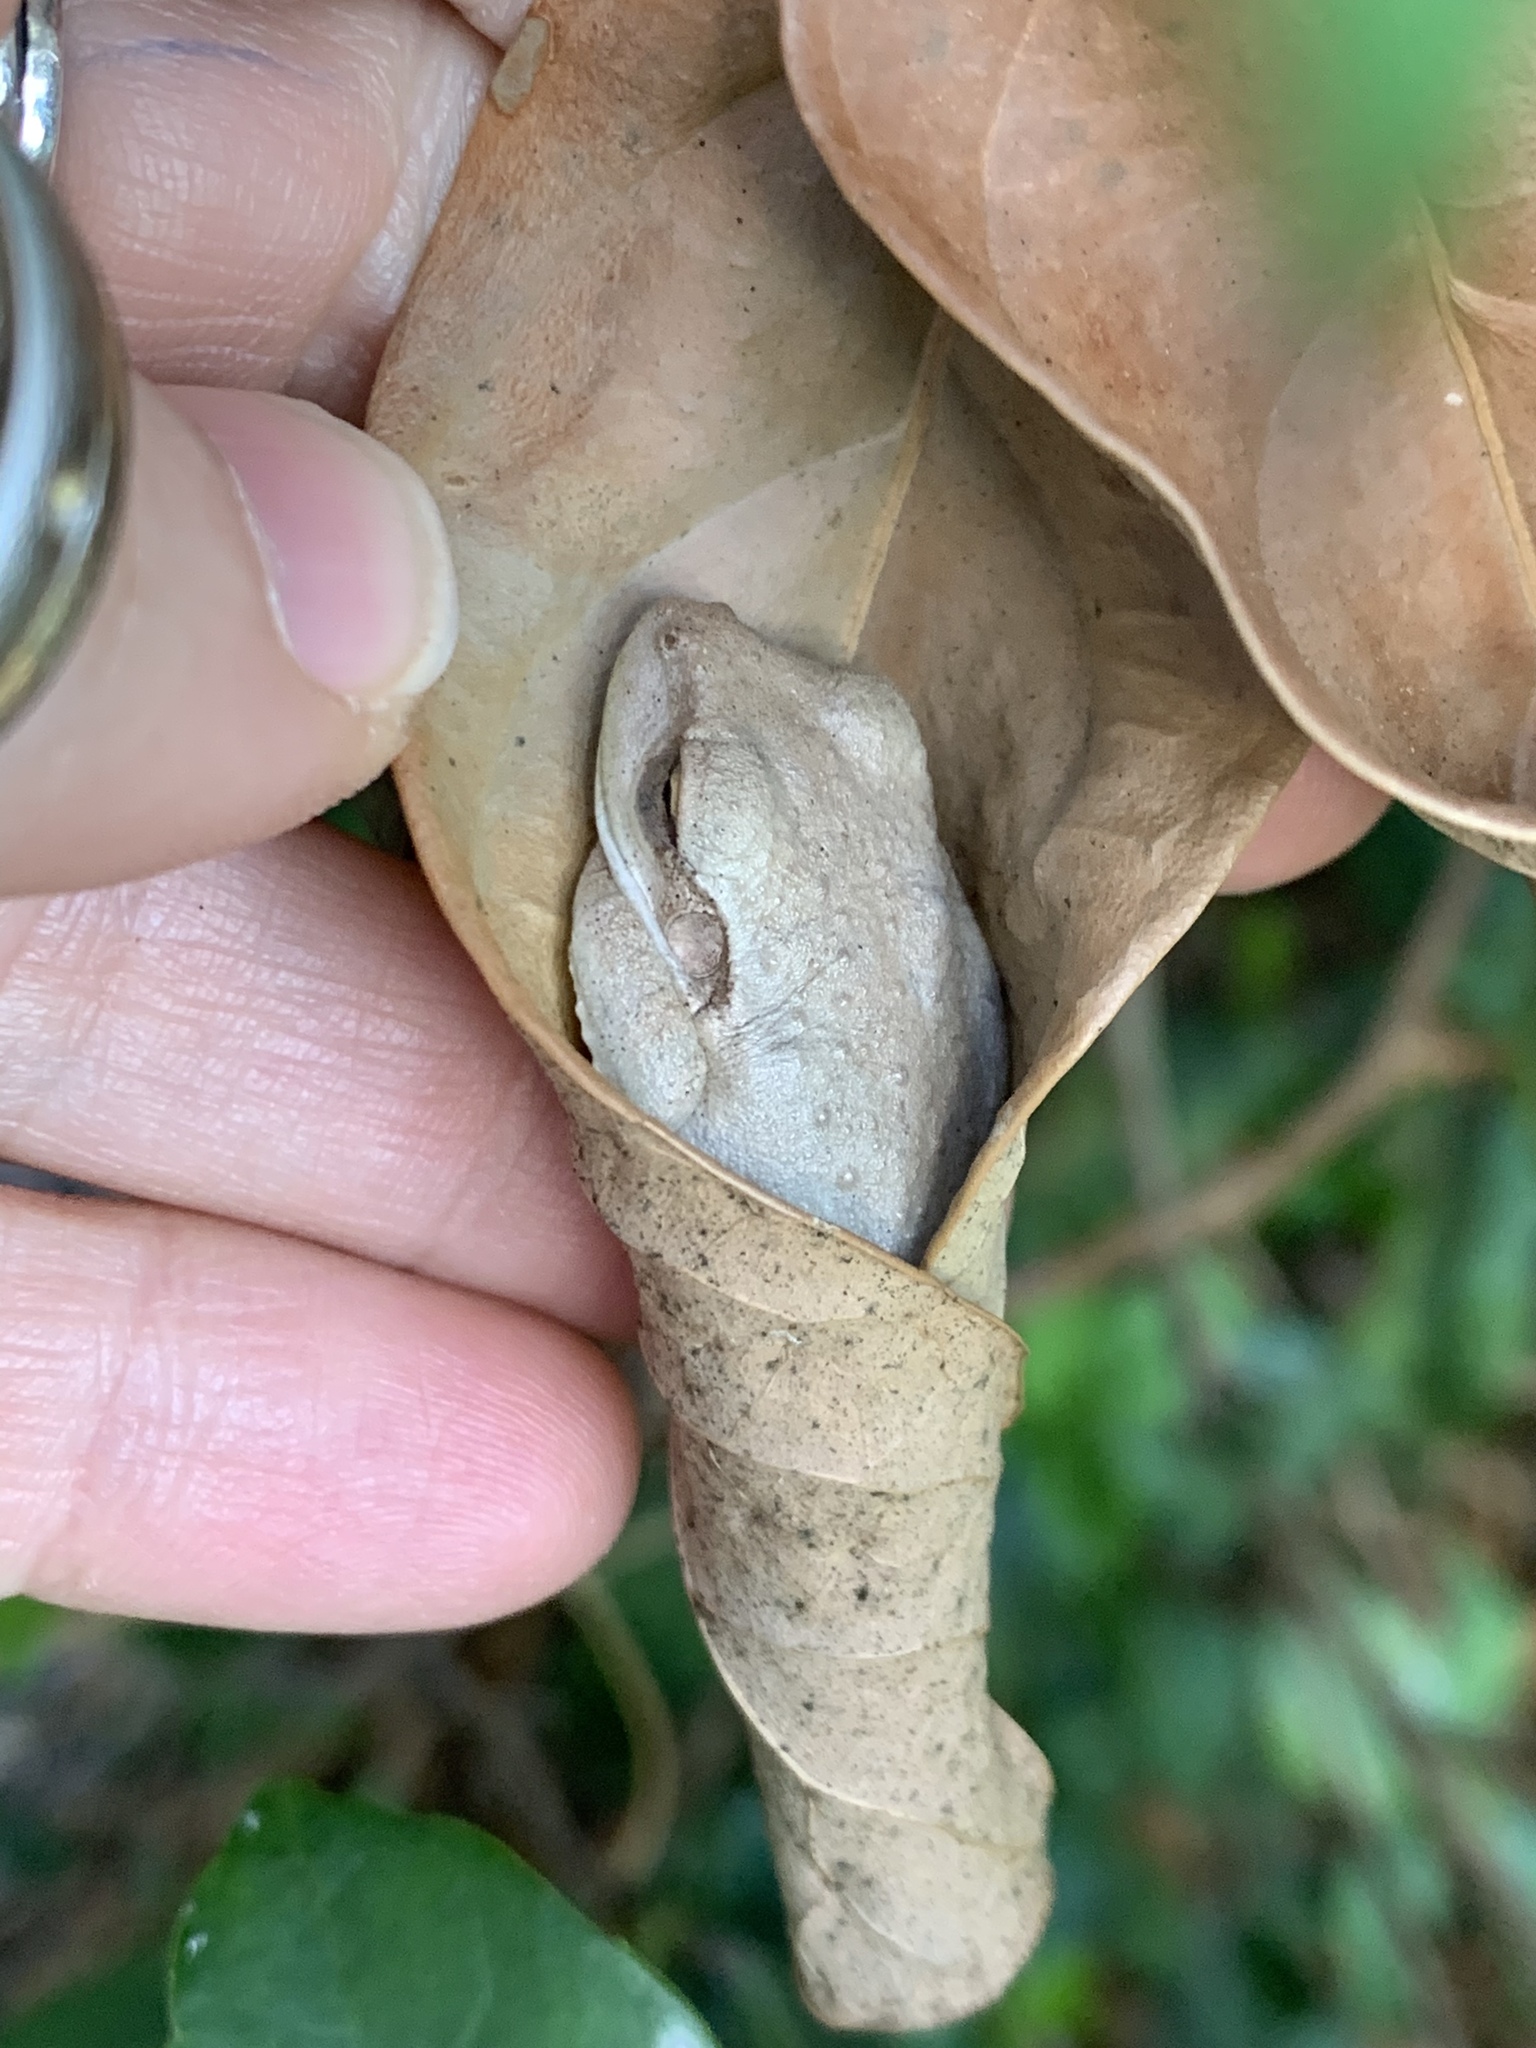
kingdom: Animalia
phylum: Chordata
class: Amphibia
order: Anura
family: Hylidae
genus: Osteopilus
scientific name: Osteopilus septentrionalis
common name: Cuban treefrog
